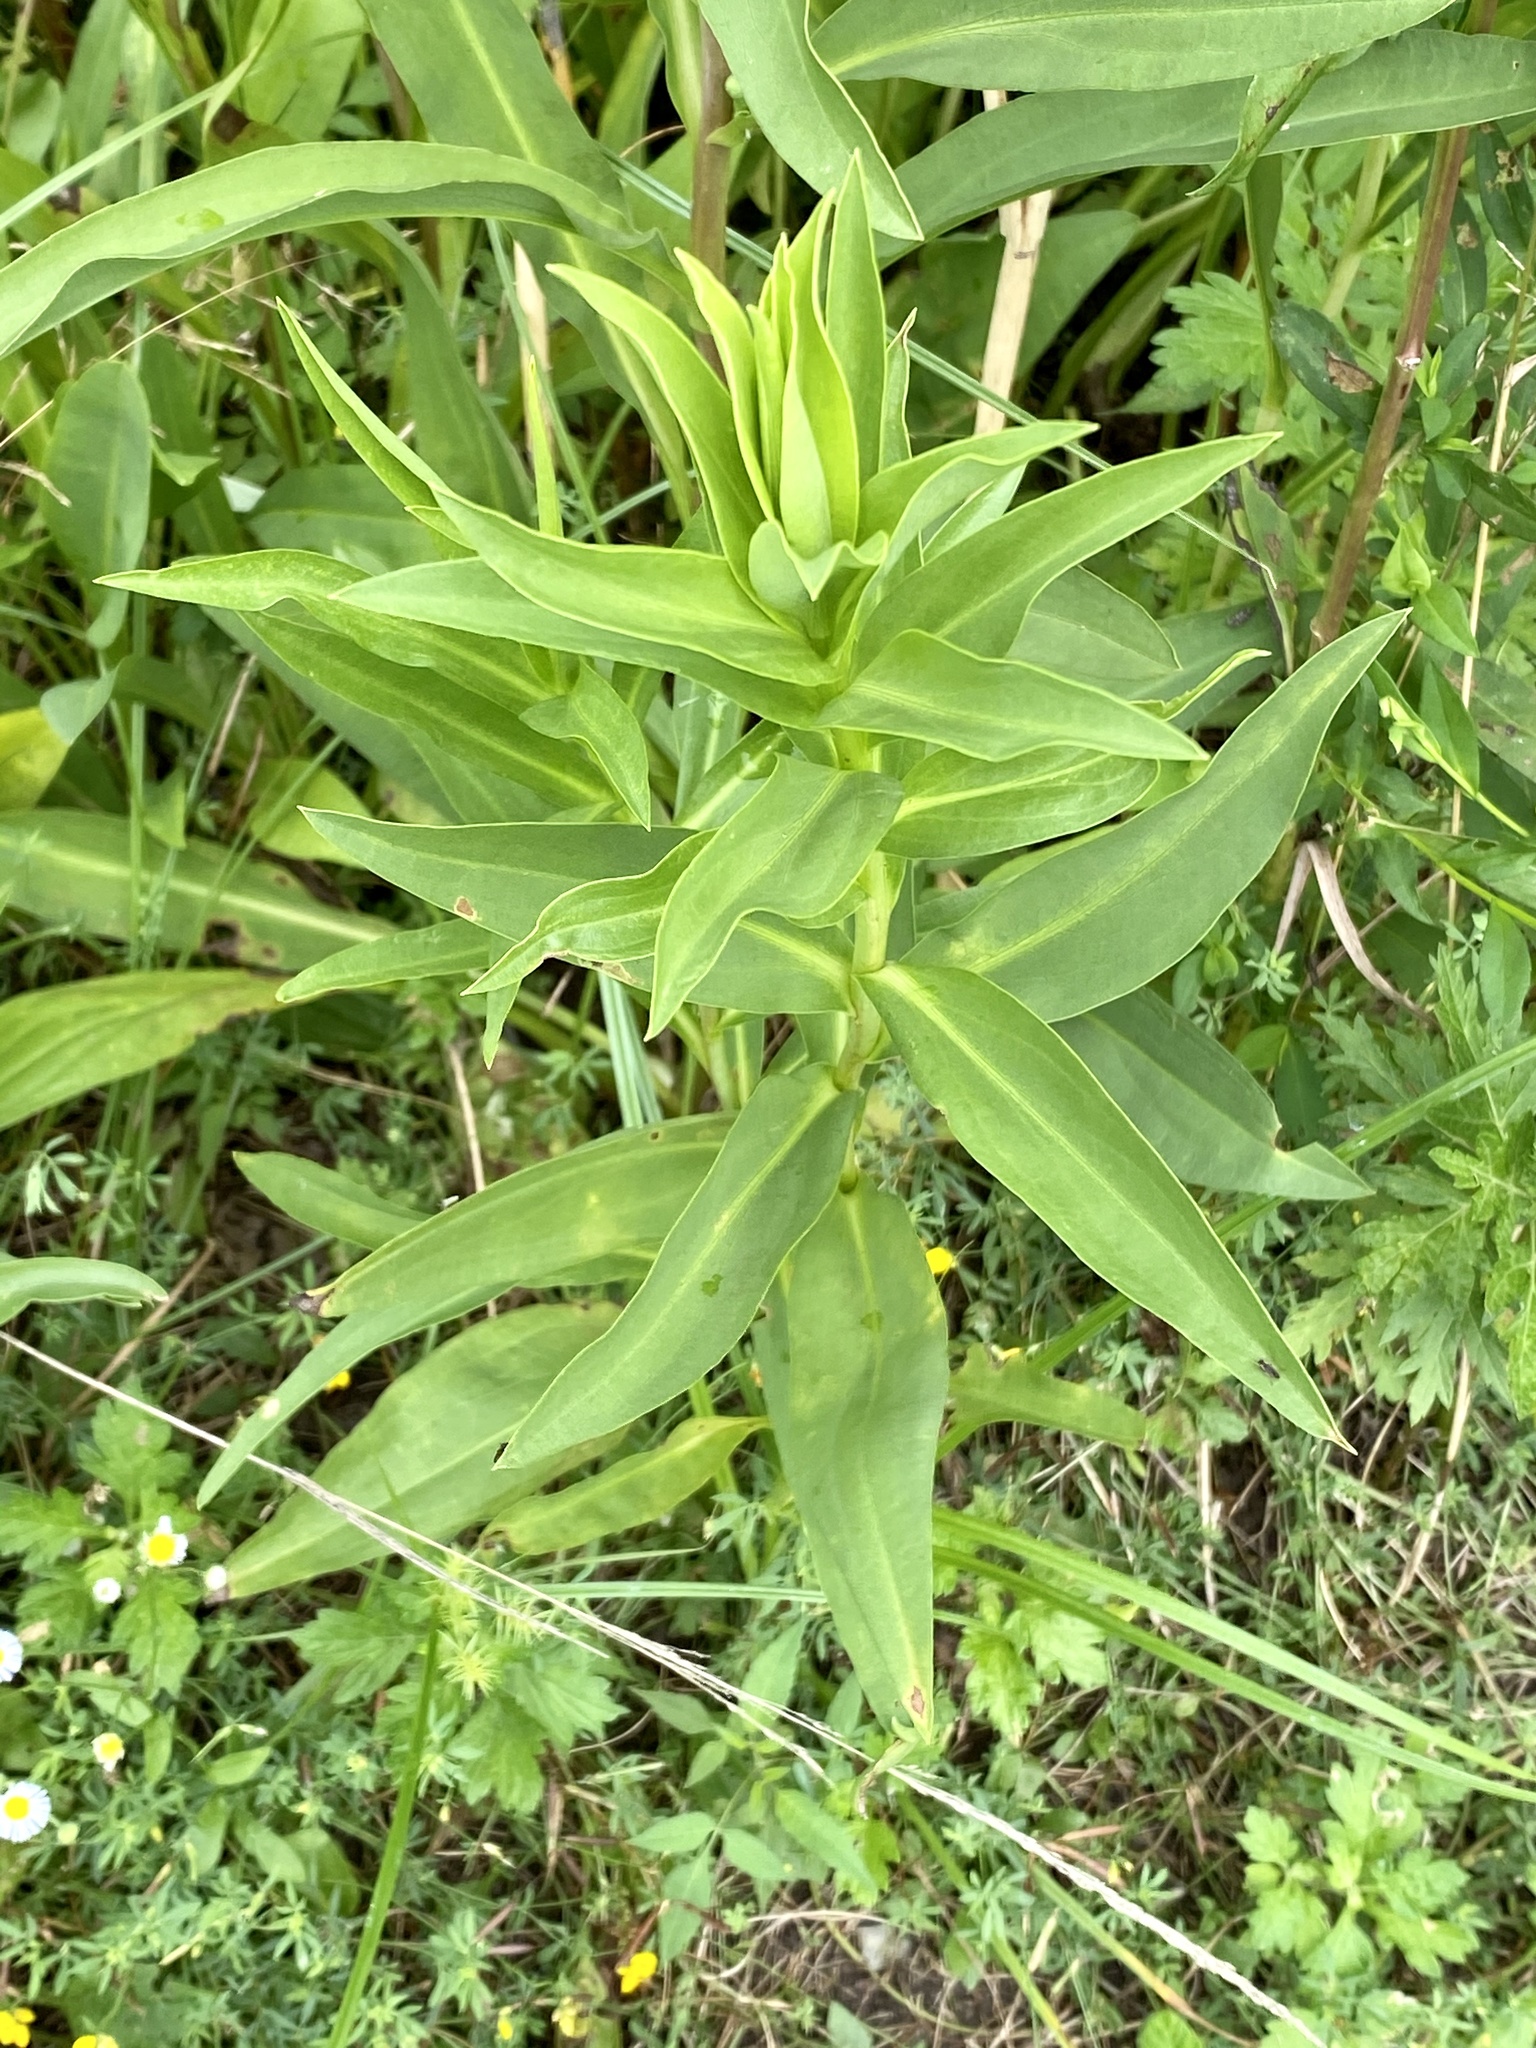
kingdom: Plantae
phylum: Tracheophyta
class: Magnoliopsida
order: Asterales
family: Asteraceae
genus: Solidago
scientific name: Solidago sempervirens
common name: Salt-marsh goldenrod
